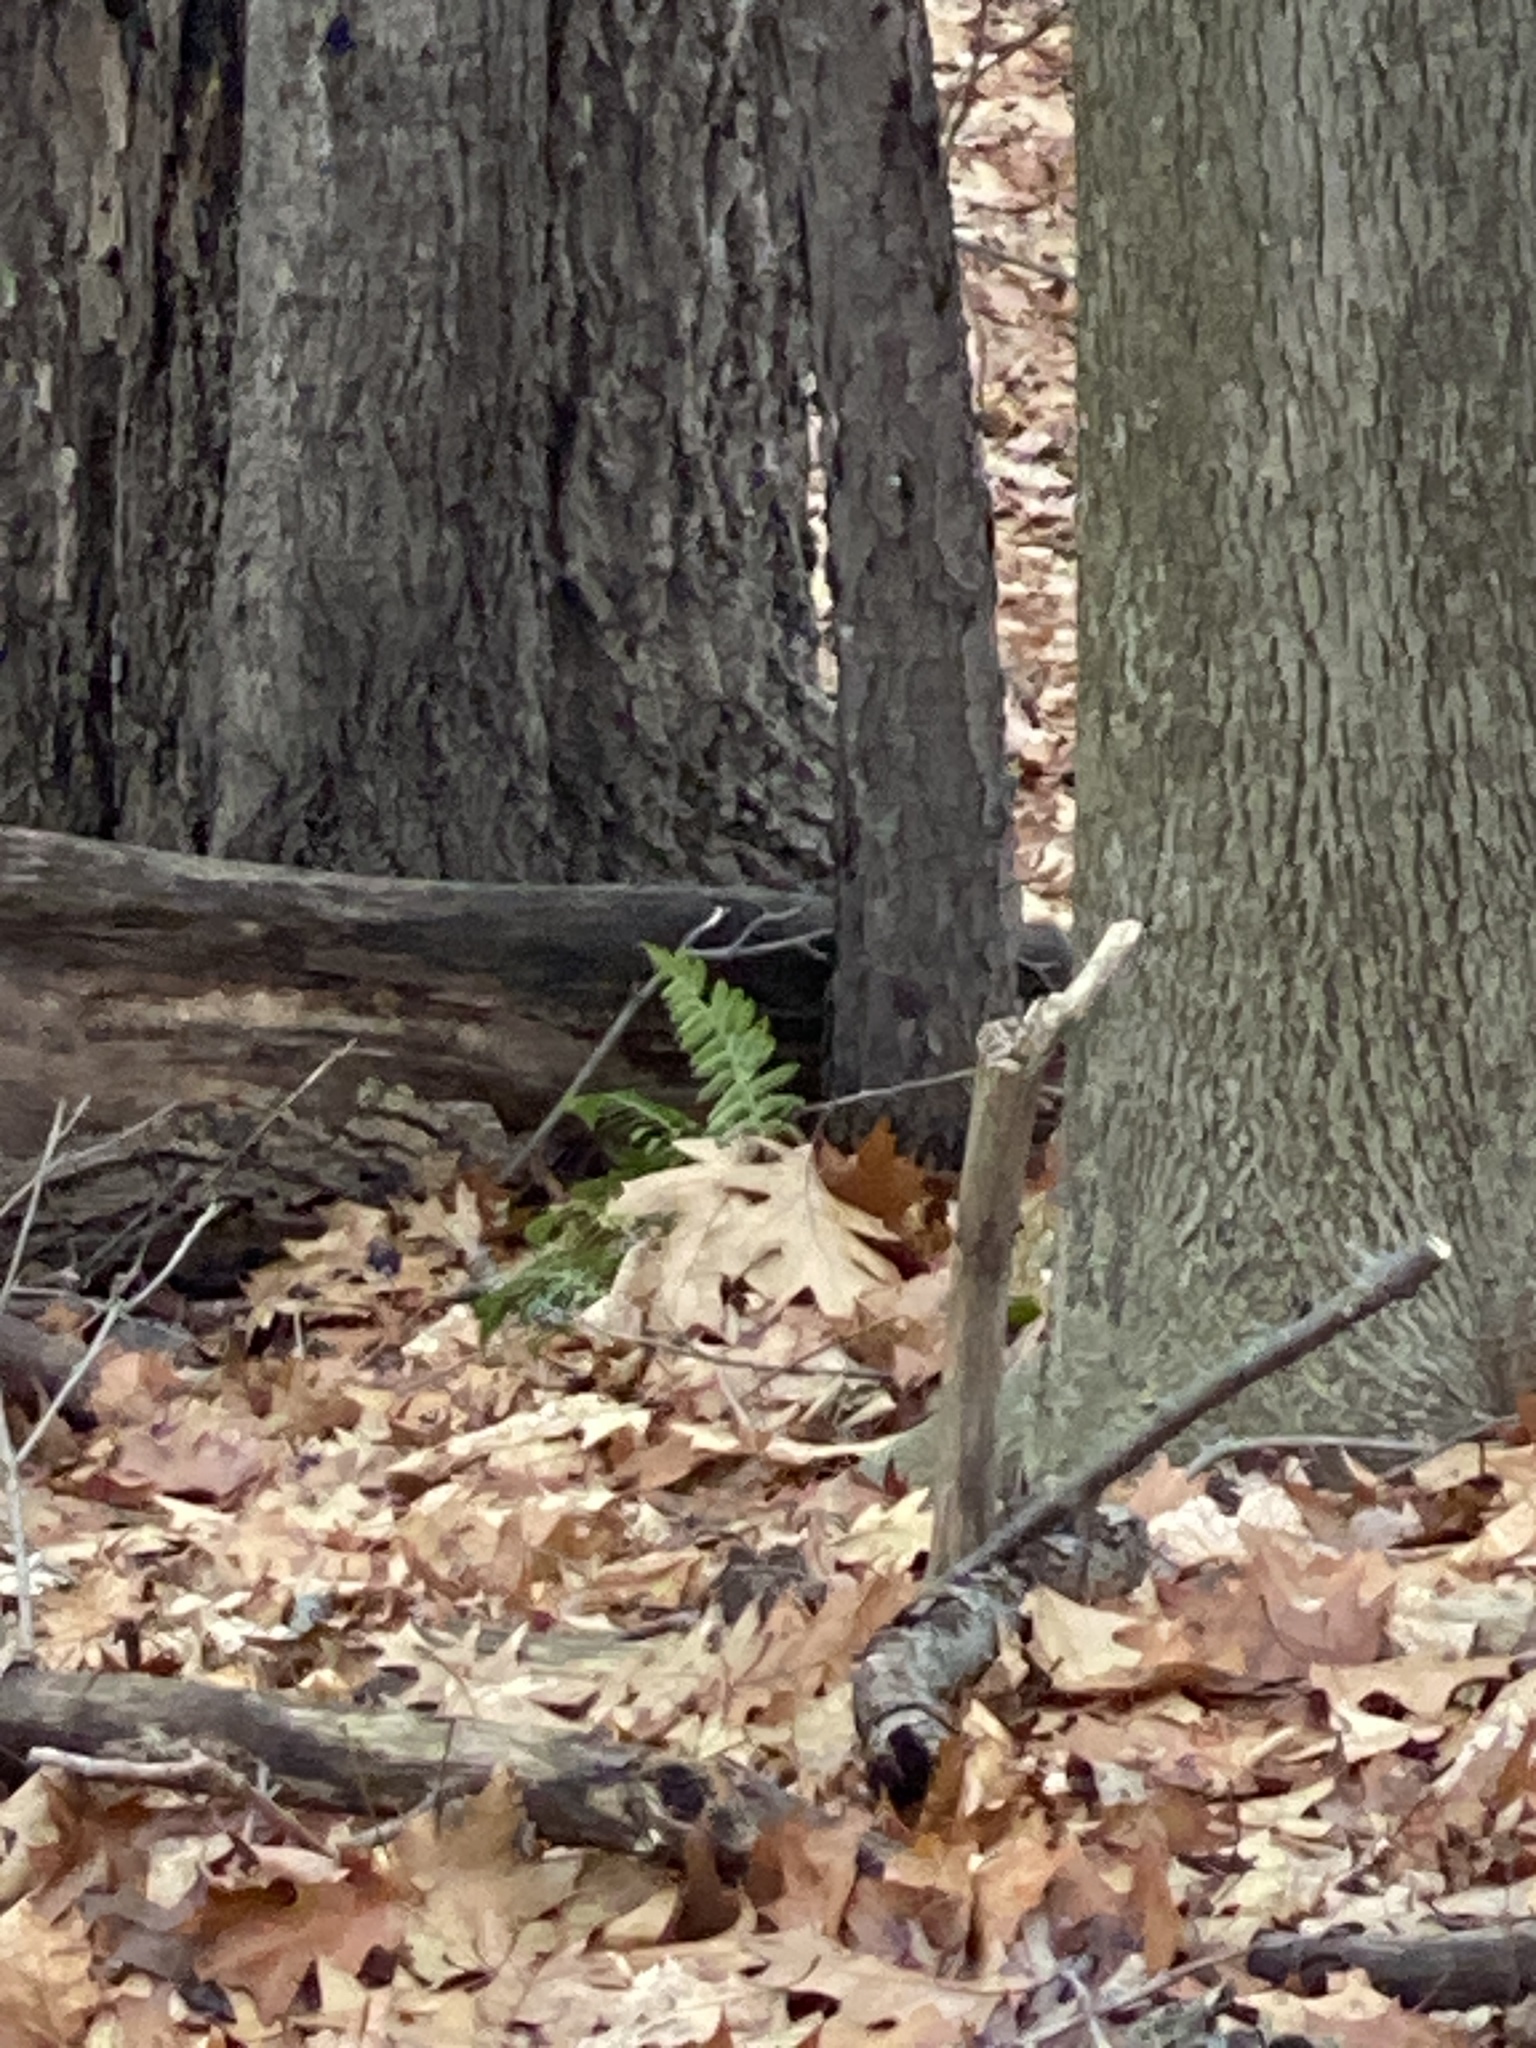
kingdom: Plantae
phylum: Tracheophyta
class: Polypodiopsida
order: Polypodiales
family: Dryopteridaceae
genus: Polystichum
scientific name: Polystichum acrostichoides
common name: Christmas fern
